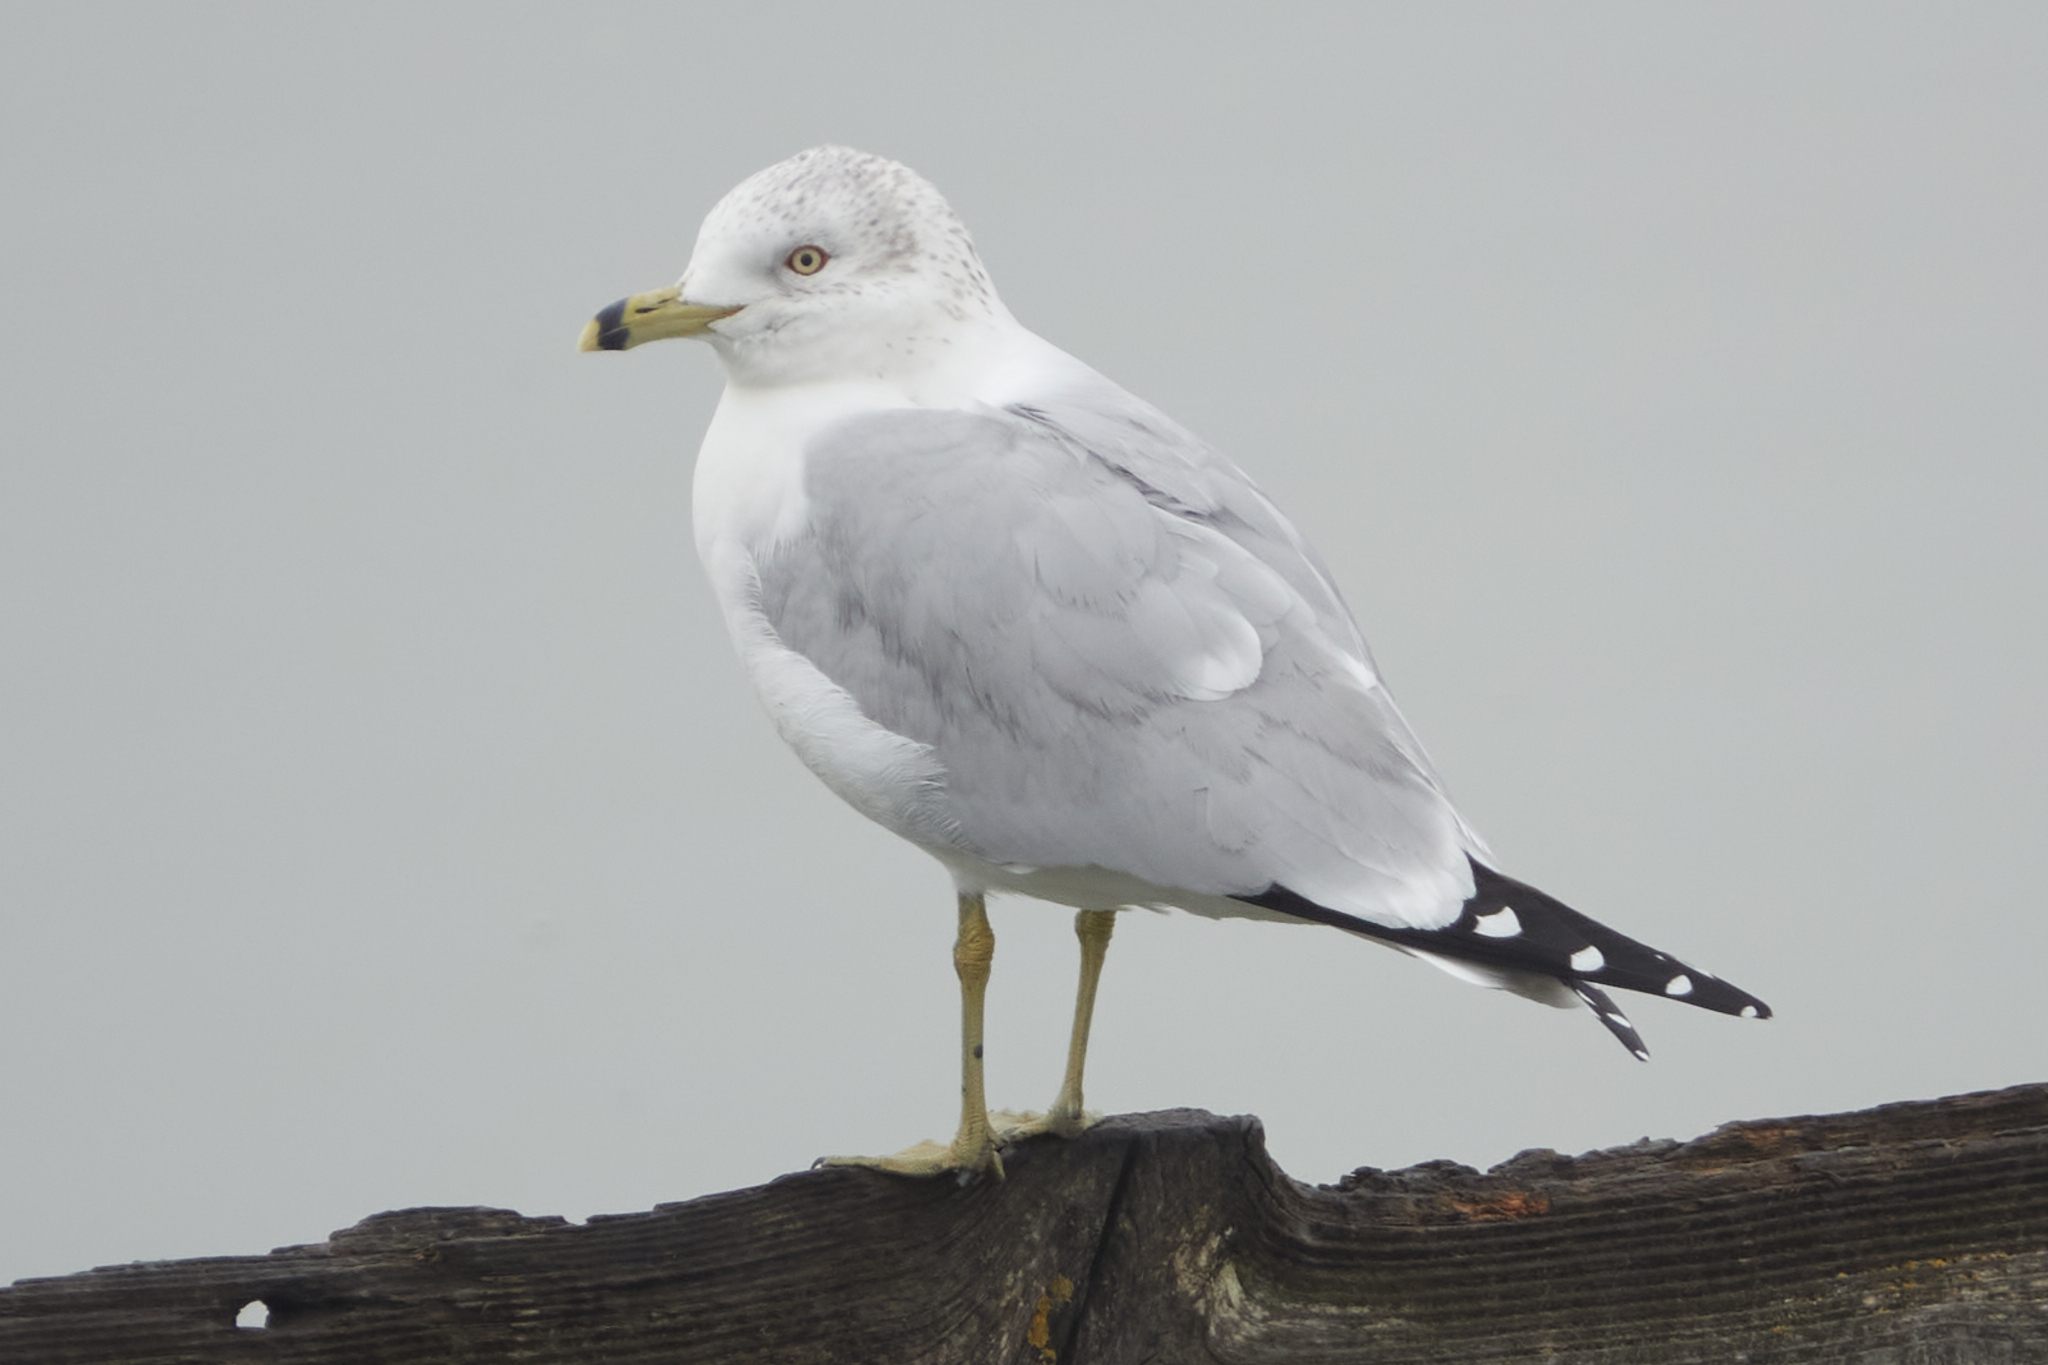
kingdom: Animalia
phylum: Chordata
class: Aves
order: Charadriiformes
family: Laridae
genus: Larus
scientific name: Larus delawarensis
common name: Ring-billed gull
